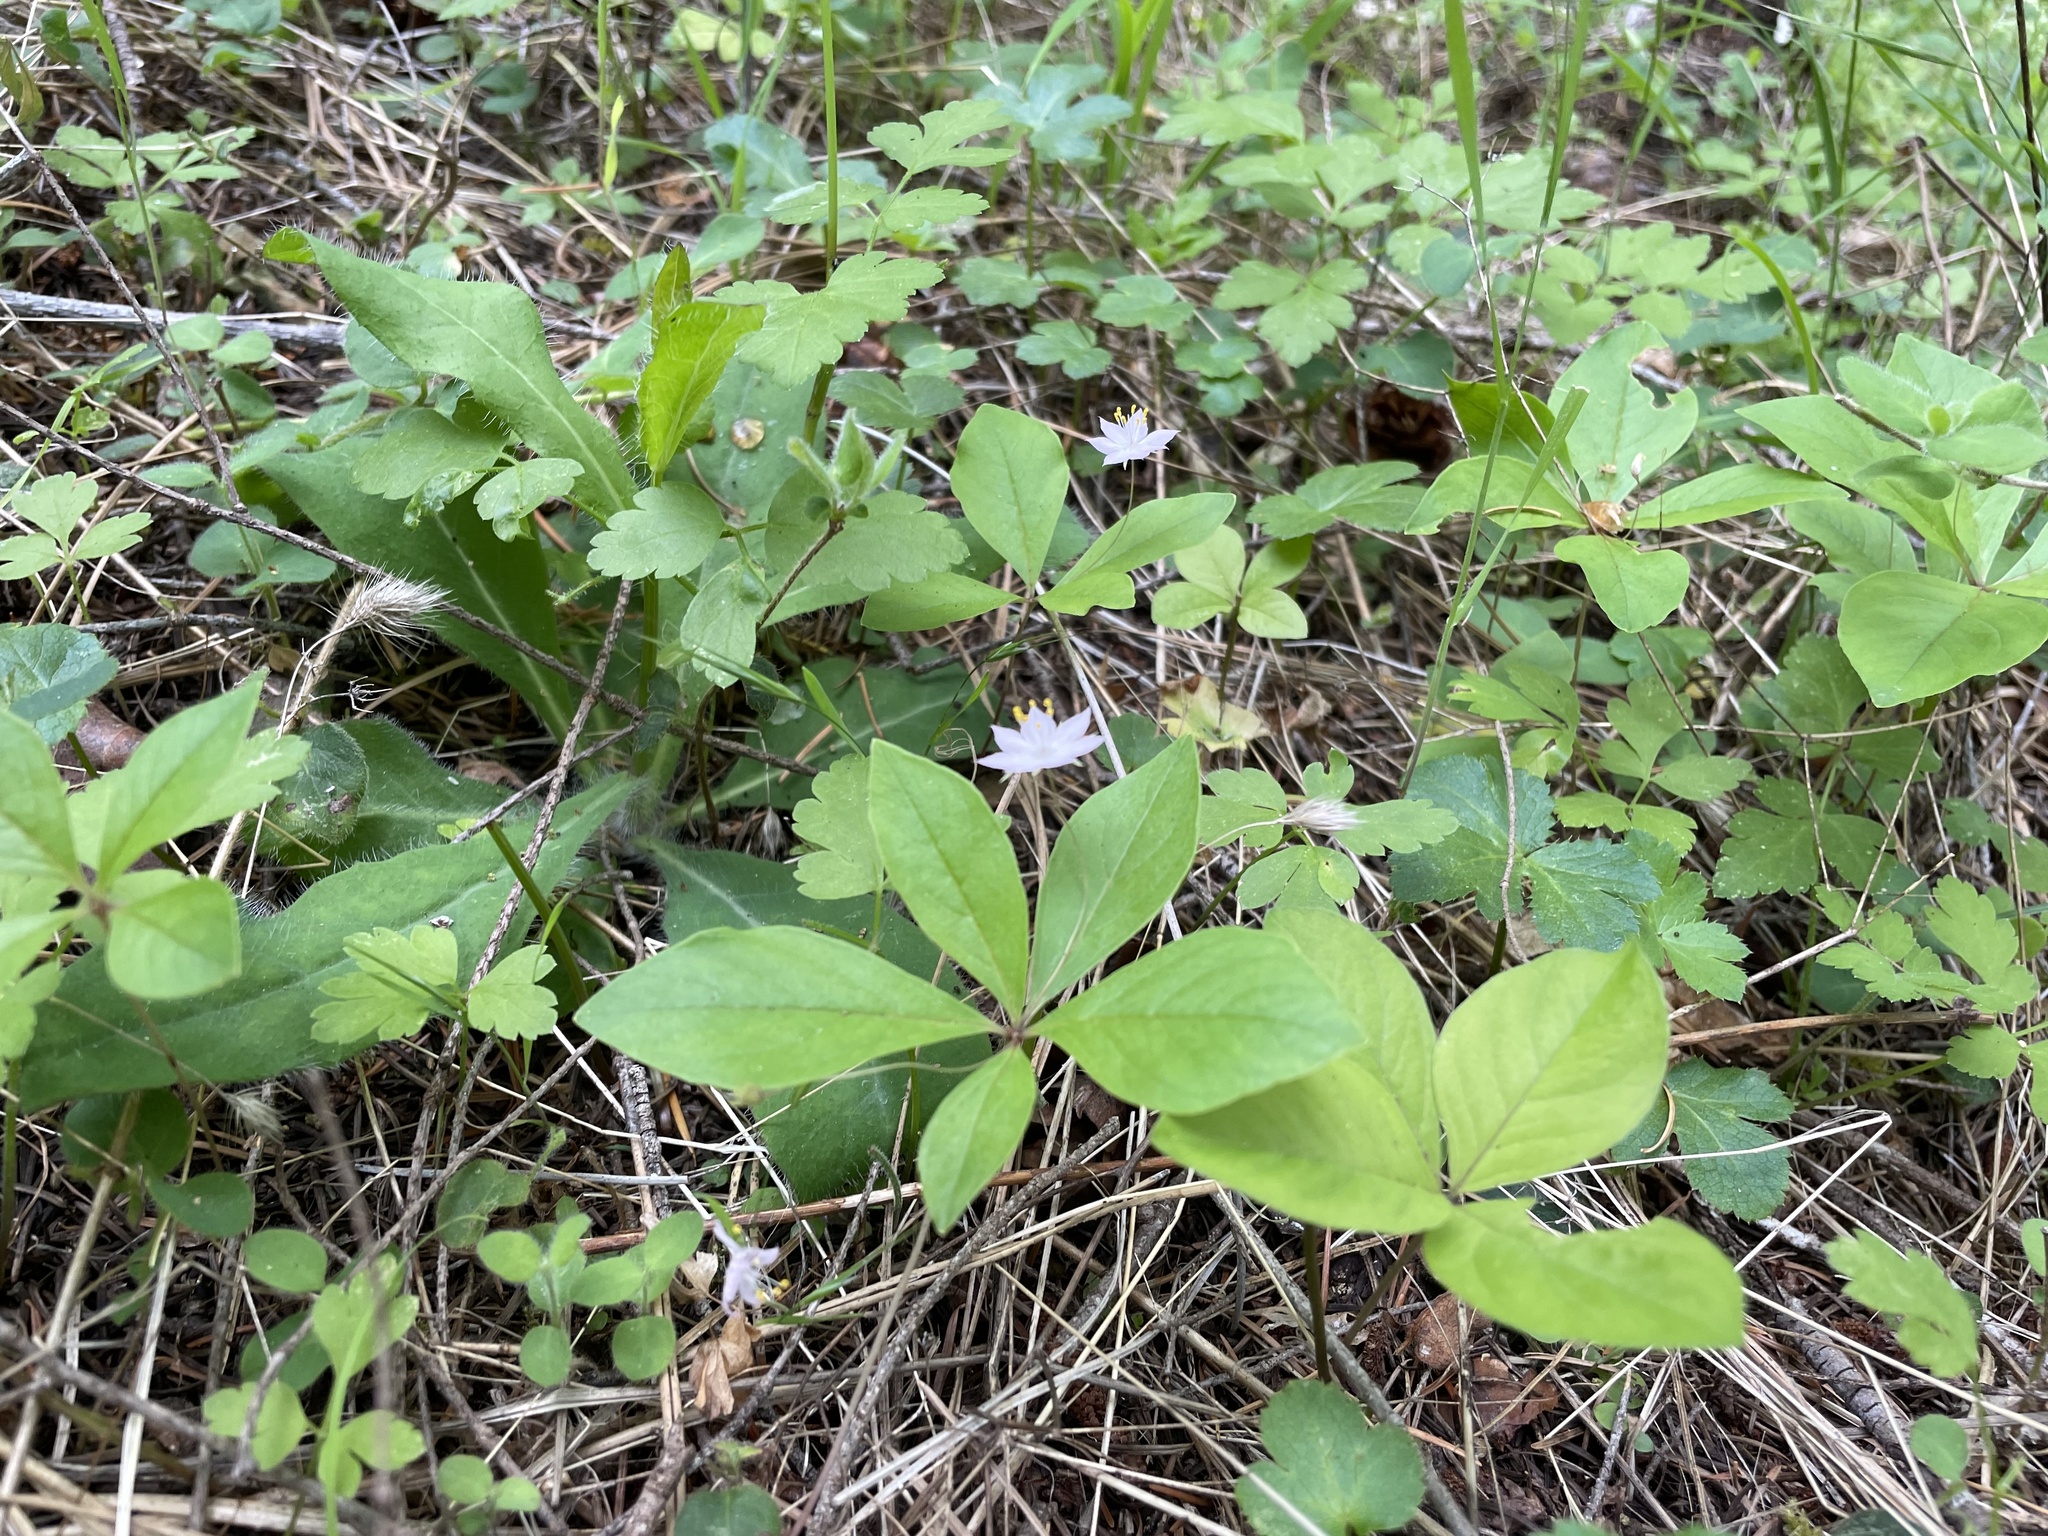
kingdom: Plantae
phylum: Tracheophyta
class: Magnoliopsida
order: Ericales
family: Primulaceae
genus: Lysimachia
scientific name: Lysimachia latifolia
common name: Pacific starflower
